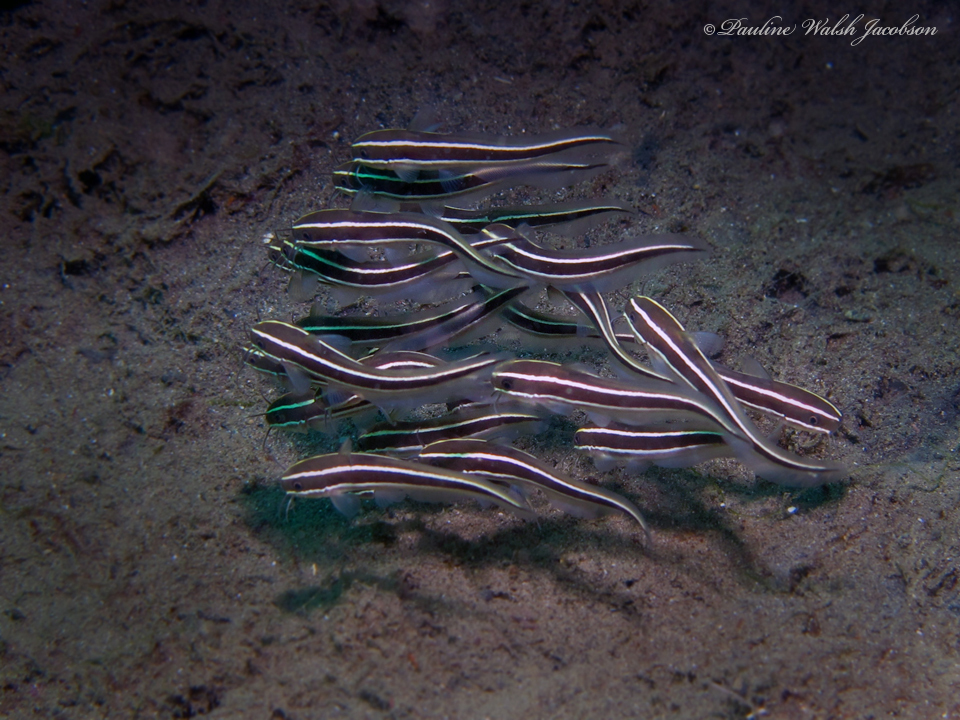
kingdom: Animalia
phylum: Chordata
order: Siluriformes
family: Plotosidae
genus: Plotosus
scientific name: Plotosus lineatus
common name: Striped eel catfish
